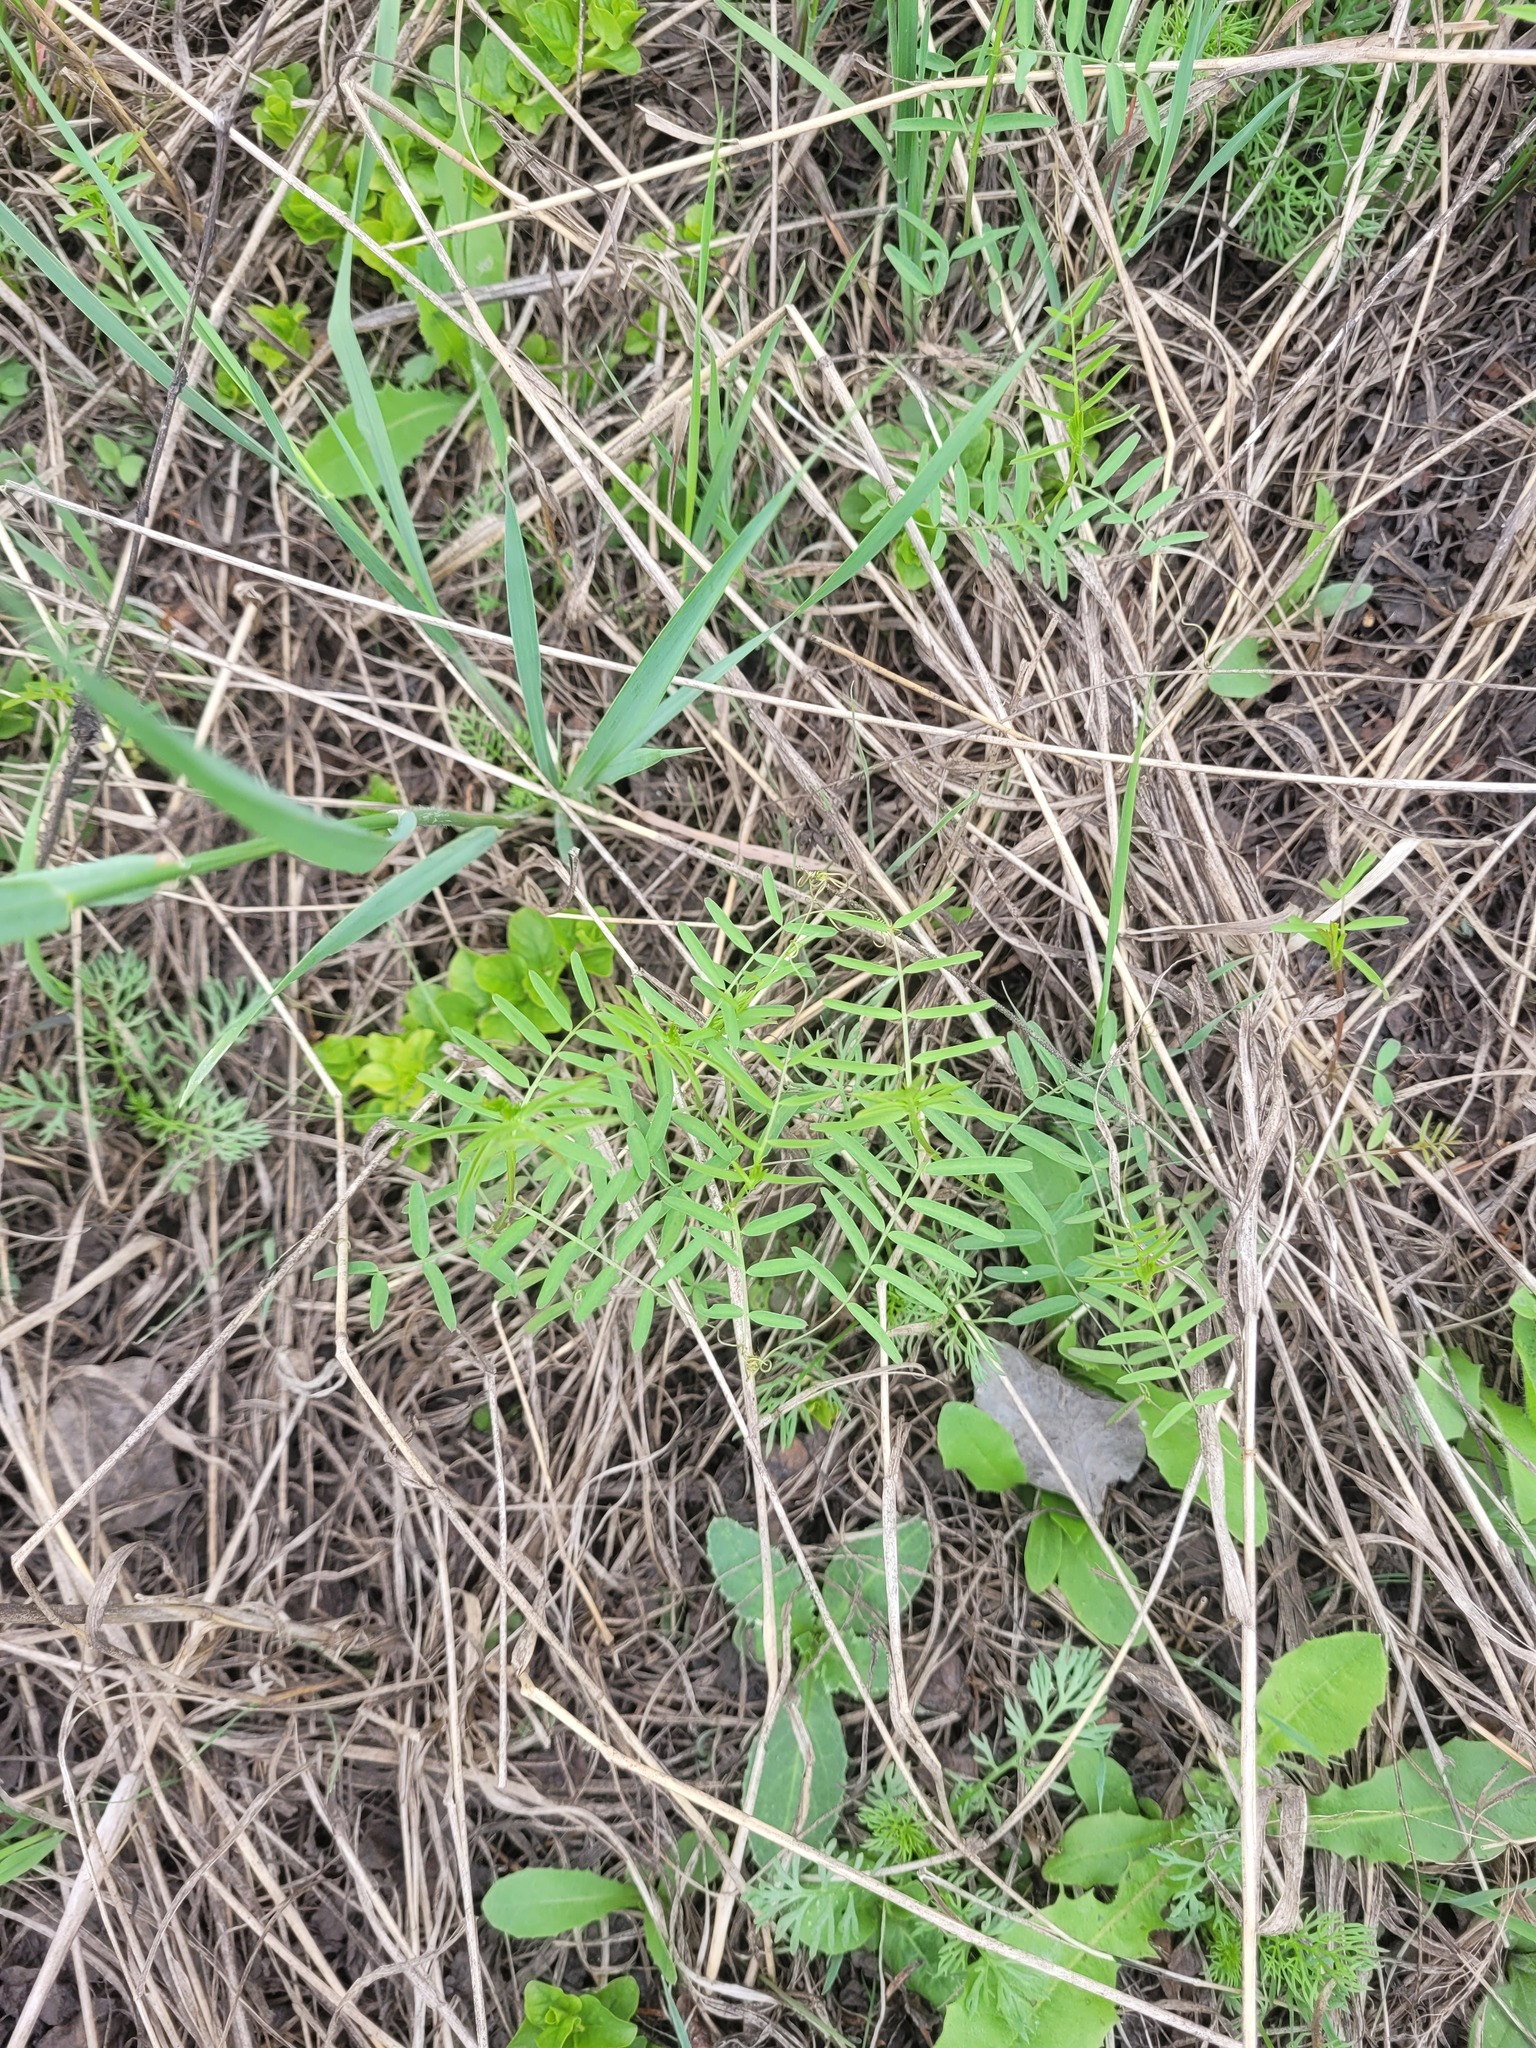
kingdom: Plantae
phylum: Tracheophyta
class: Magnoliopsida
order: Fabales
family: Fabaceae
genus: Vicia
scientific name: Vicia hirsuta
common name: Tiny vetch
